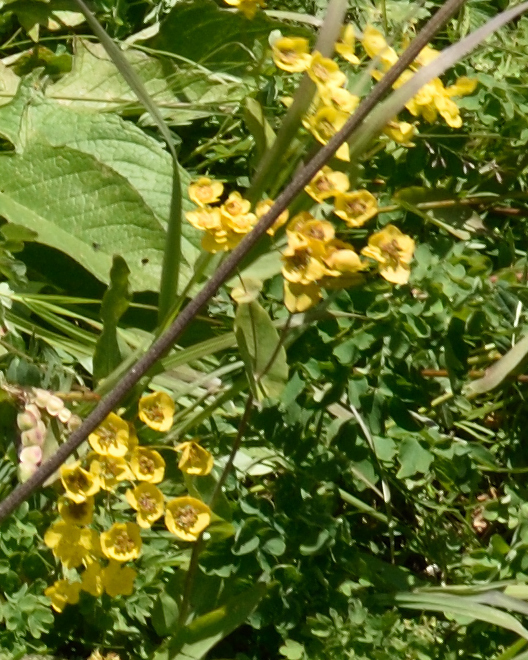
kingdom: Plantae
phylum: Tracheophyta
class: Magnoliopsida
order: Apiales
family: Apiaceae
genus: Bupleurum
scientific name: Bupleurum aureum
